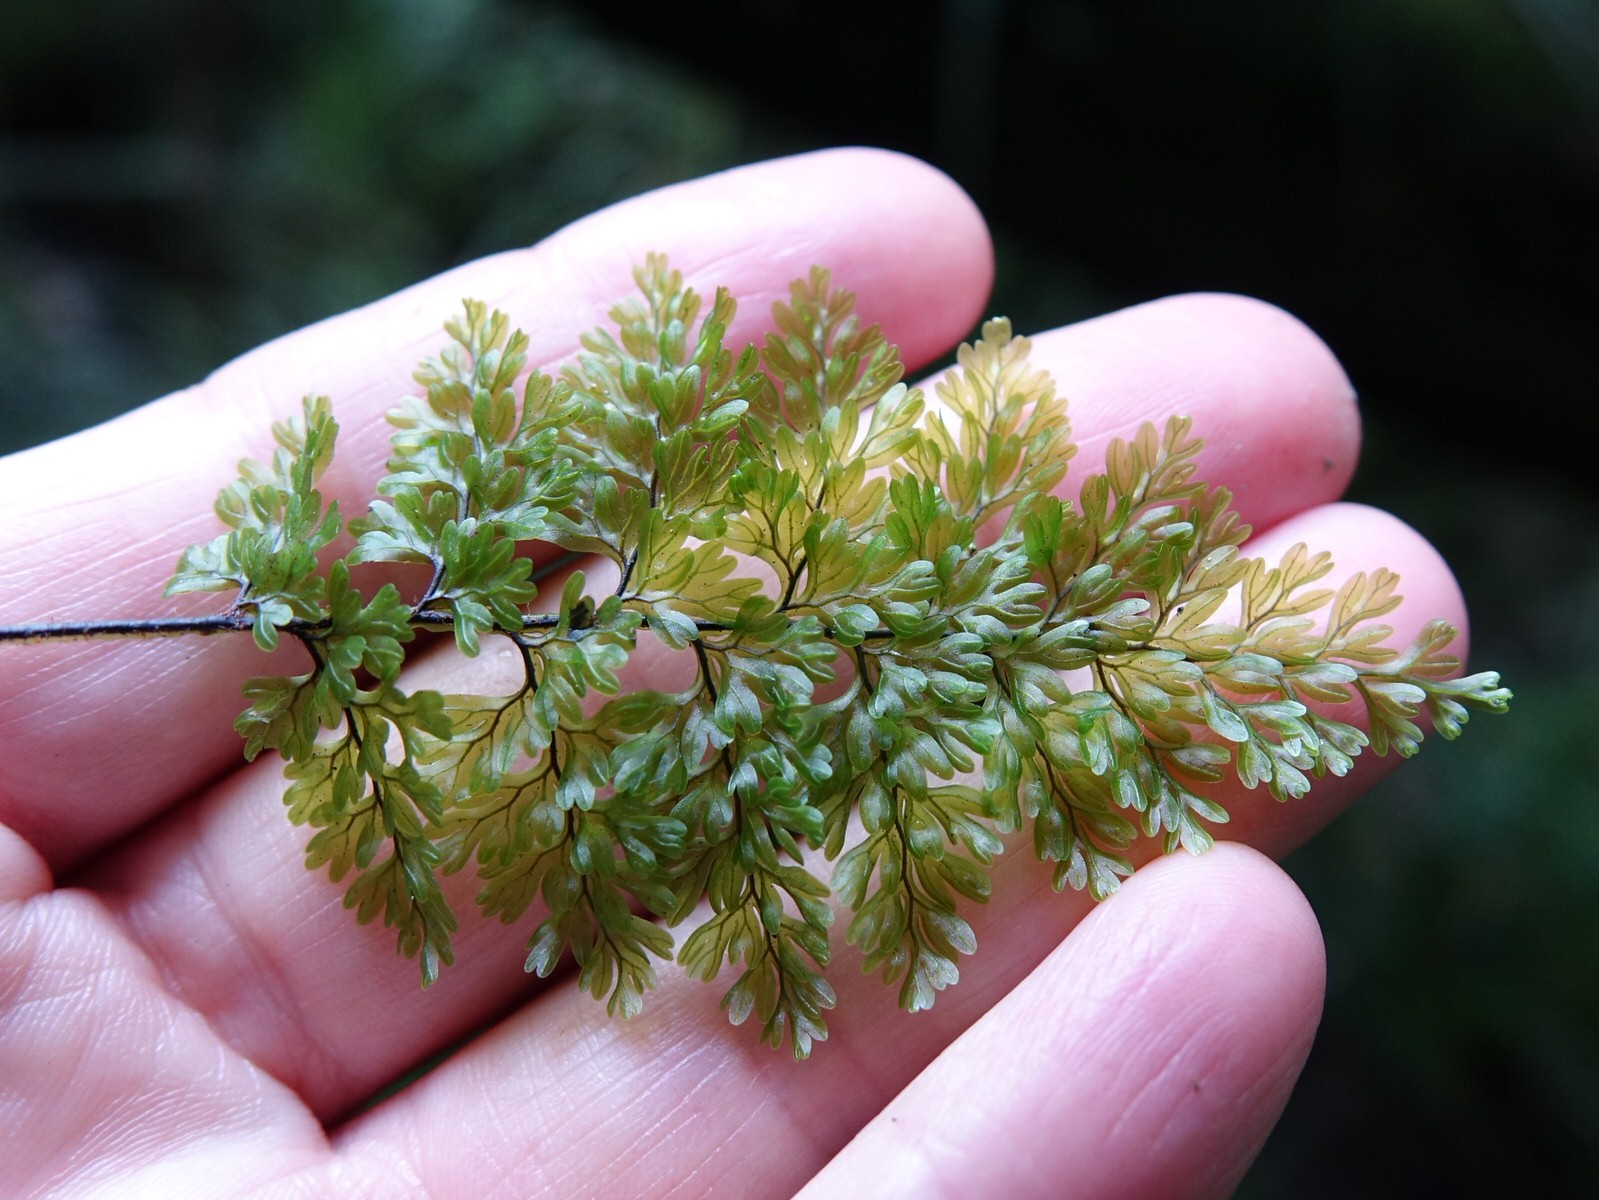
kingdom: Plantae
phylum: Tracheophyta
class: Polypodiopsida
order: Hymenophyllales
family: Hymenophyllaceae
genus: Hymenophyllum
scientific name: Hymenophyllum sanguinolentum
